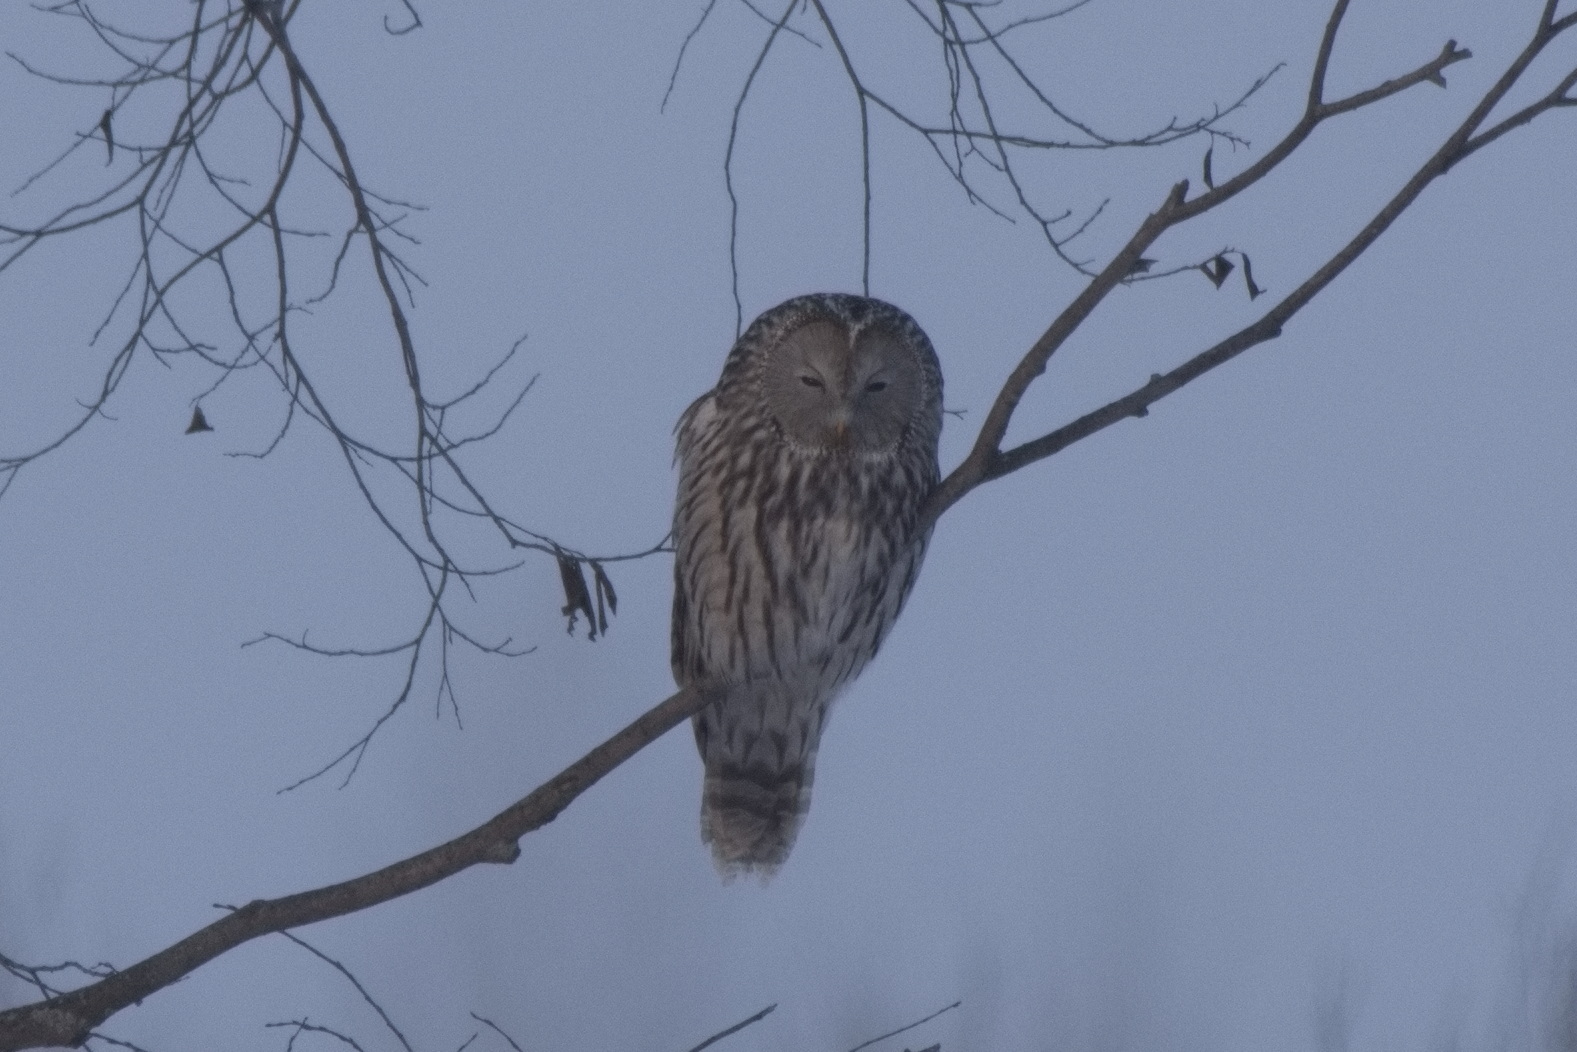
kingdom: Animalia
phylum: Chordata
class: Aves
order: Strigiformes
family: Strigidae
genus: Strix
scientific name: Strix uralensis
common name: Ural owl
